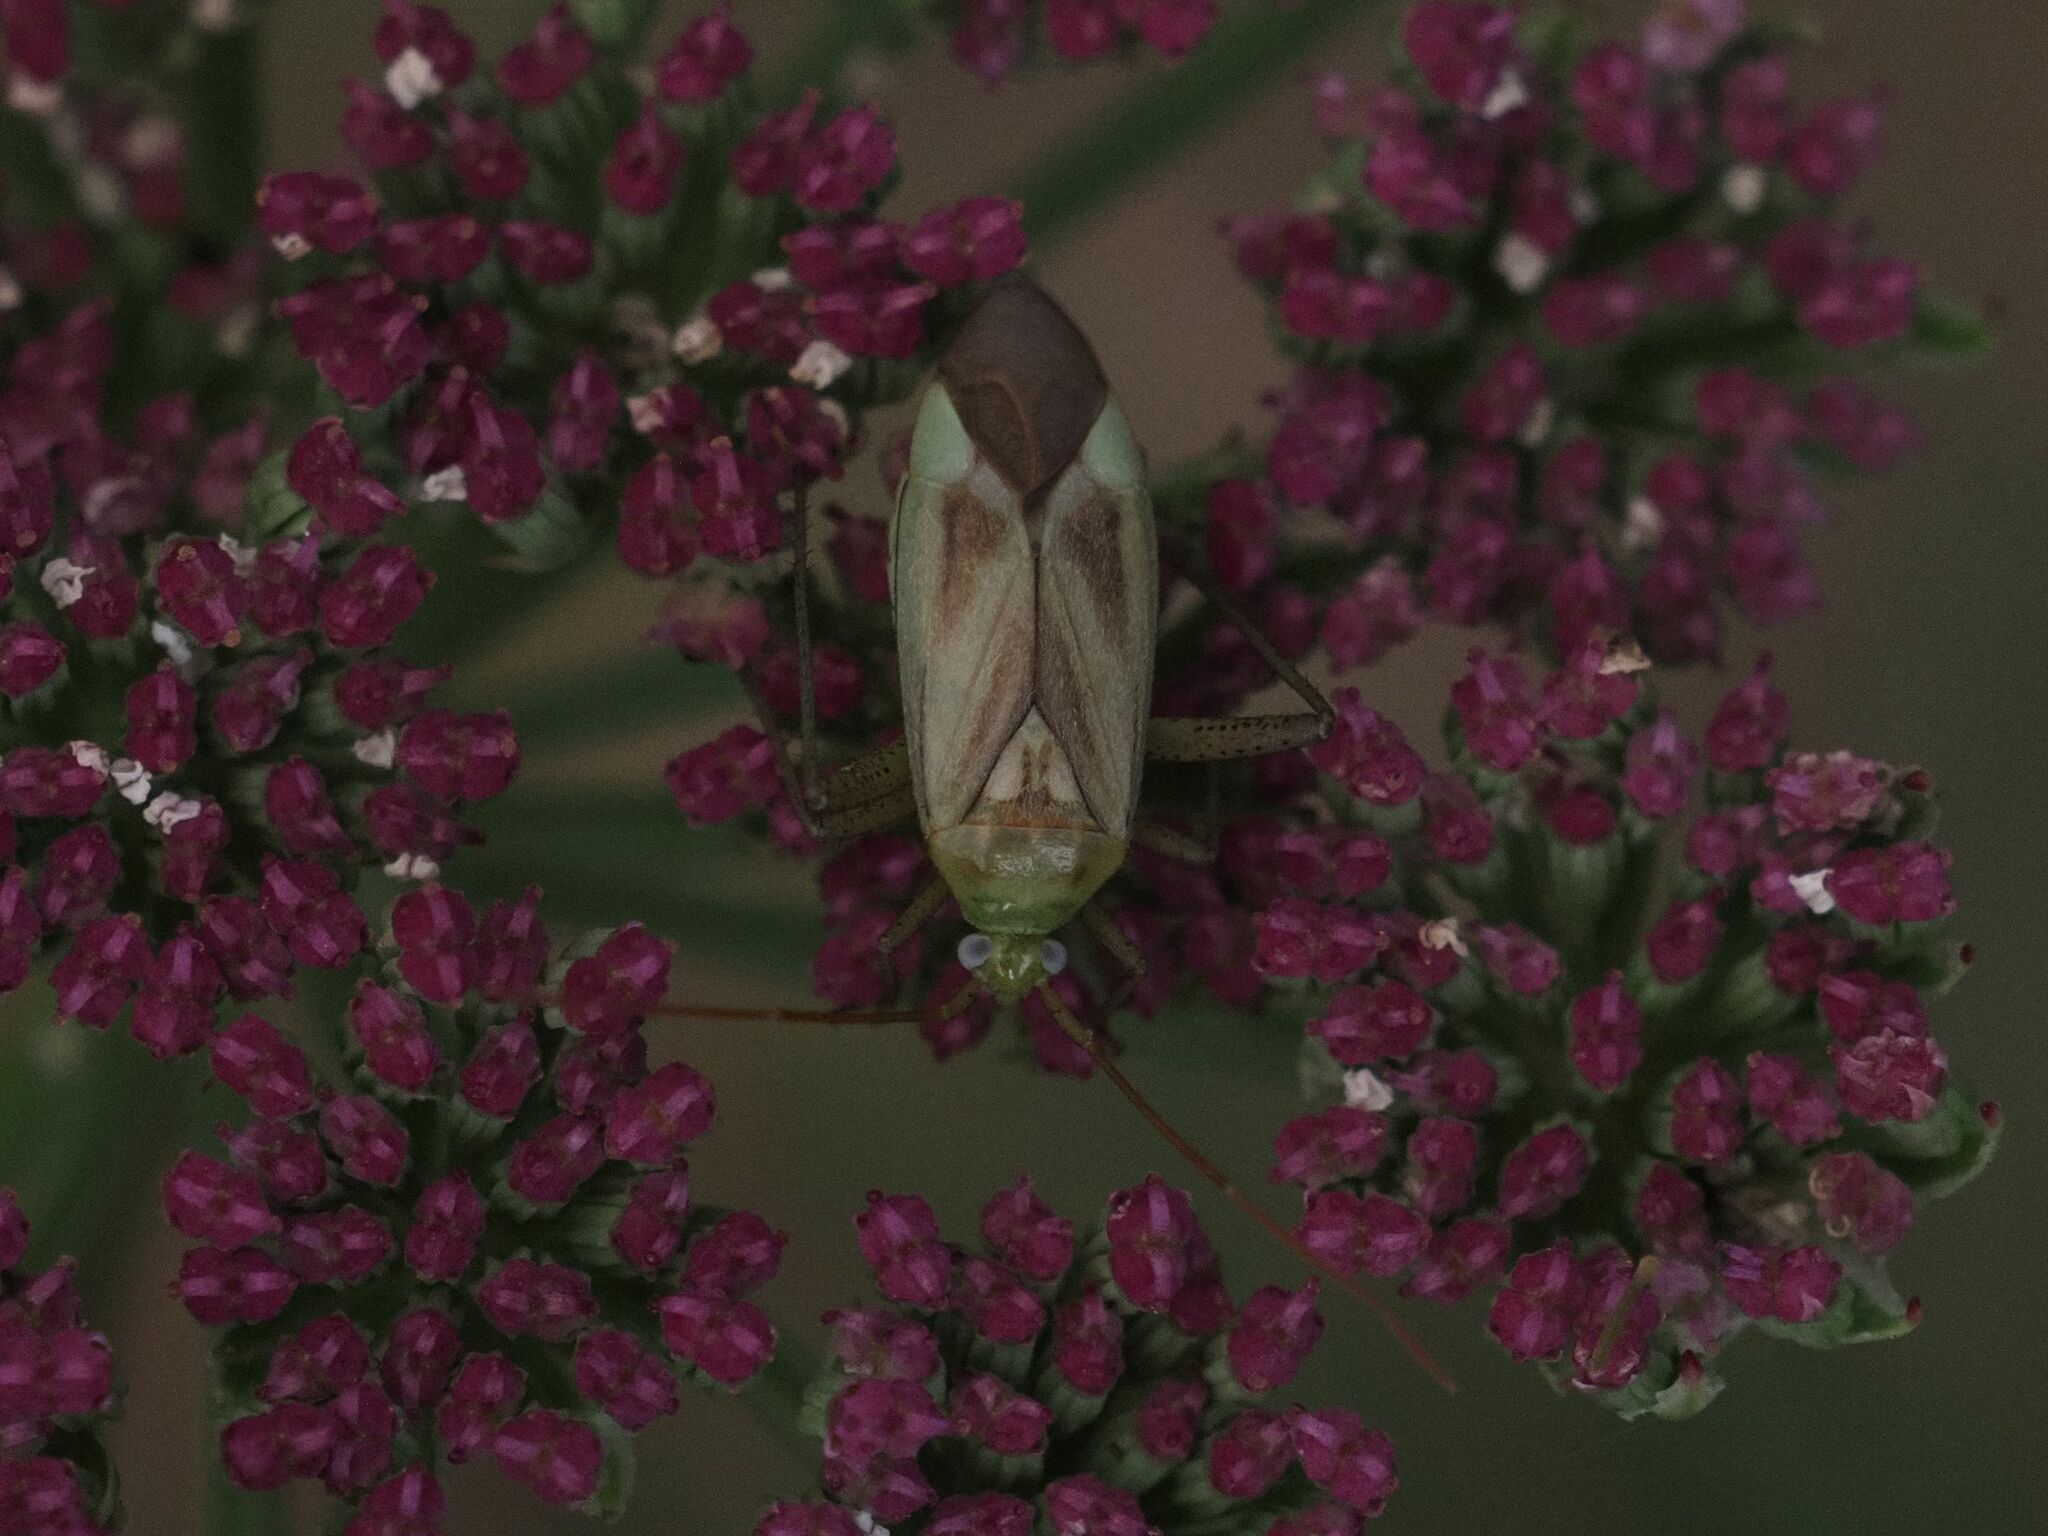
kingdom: Animalia
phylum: Arthropoda
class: Insecta
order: Hemiptera
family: Miridae
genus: Adelphocoris
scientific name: Adelphocoris lineolatus
